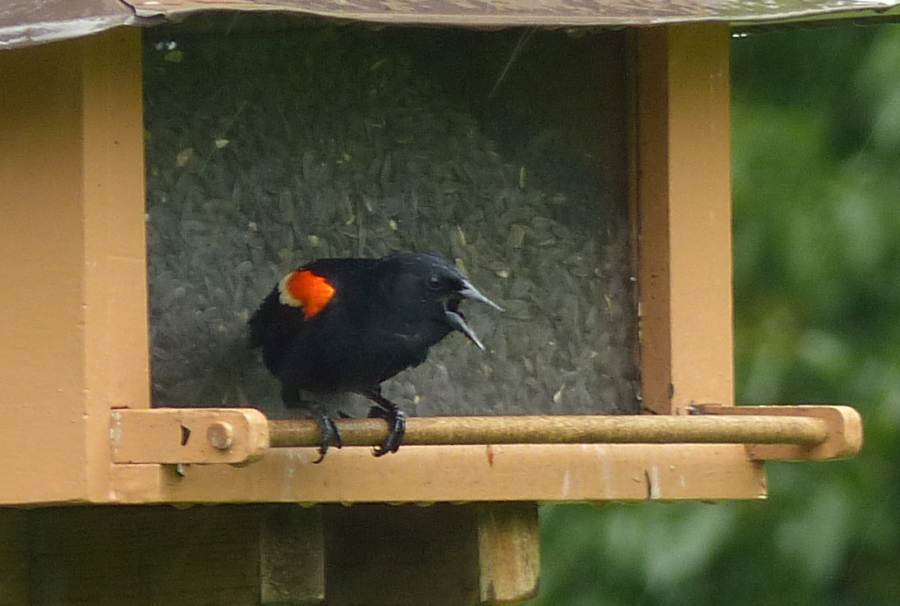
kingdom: Animalia
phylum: Chordata
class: Aves
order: Passeriformes
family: Icteridae
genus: Agelaius
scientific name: Agelaius phoeniceus
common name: Red-winged blackbird
